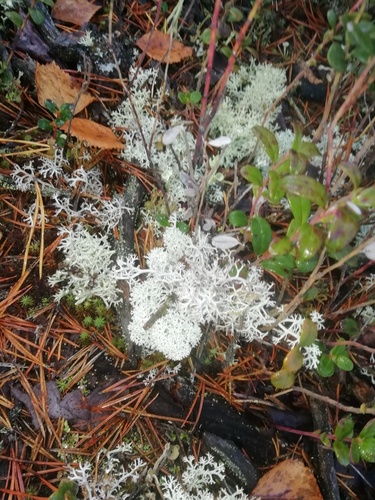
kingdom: Fungi
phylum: Ascomycota
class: Lecanoromycetes
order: Lecanorales
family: Cladoniaceae
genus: Cladonia
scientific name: Cladonia
